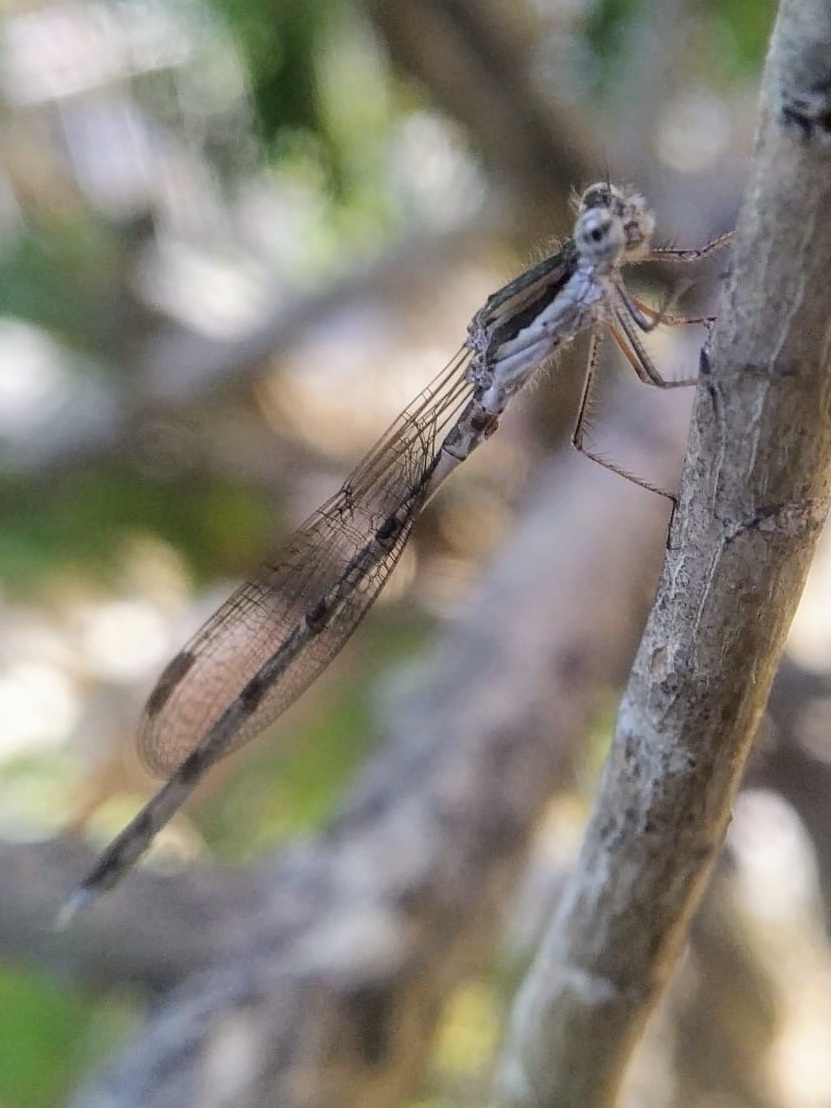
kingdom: Animalia
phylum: Arthropoda
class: Insecta
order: Odonata
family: Lestidae
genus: Sympecma
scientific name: Sympecma fusca
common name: Common winter damsel
